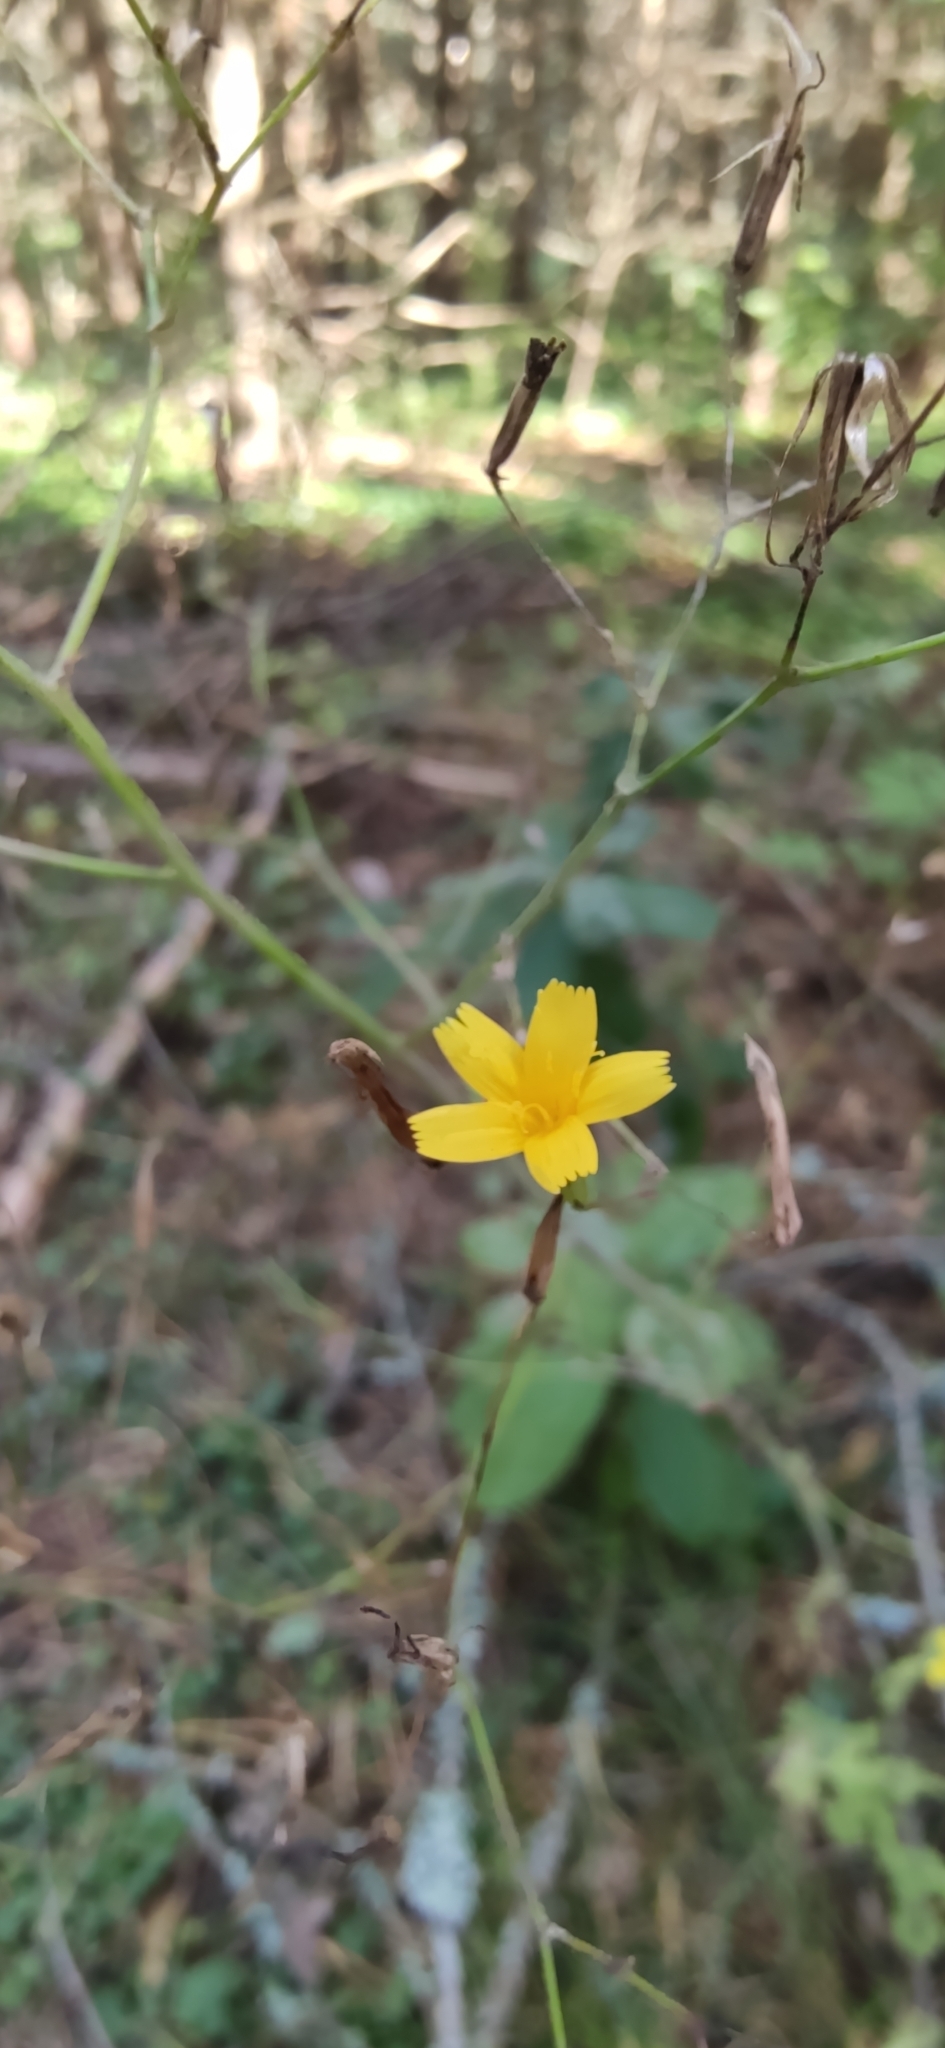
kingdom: Plantae
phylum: Tracheophyta
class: Magnoliopsida
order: Asterales
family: Asteraceae
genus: Mycelis
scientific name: Mycelis muralis
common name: Wall lettuce
